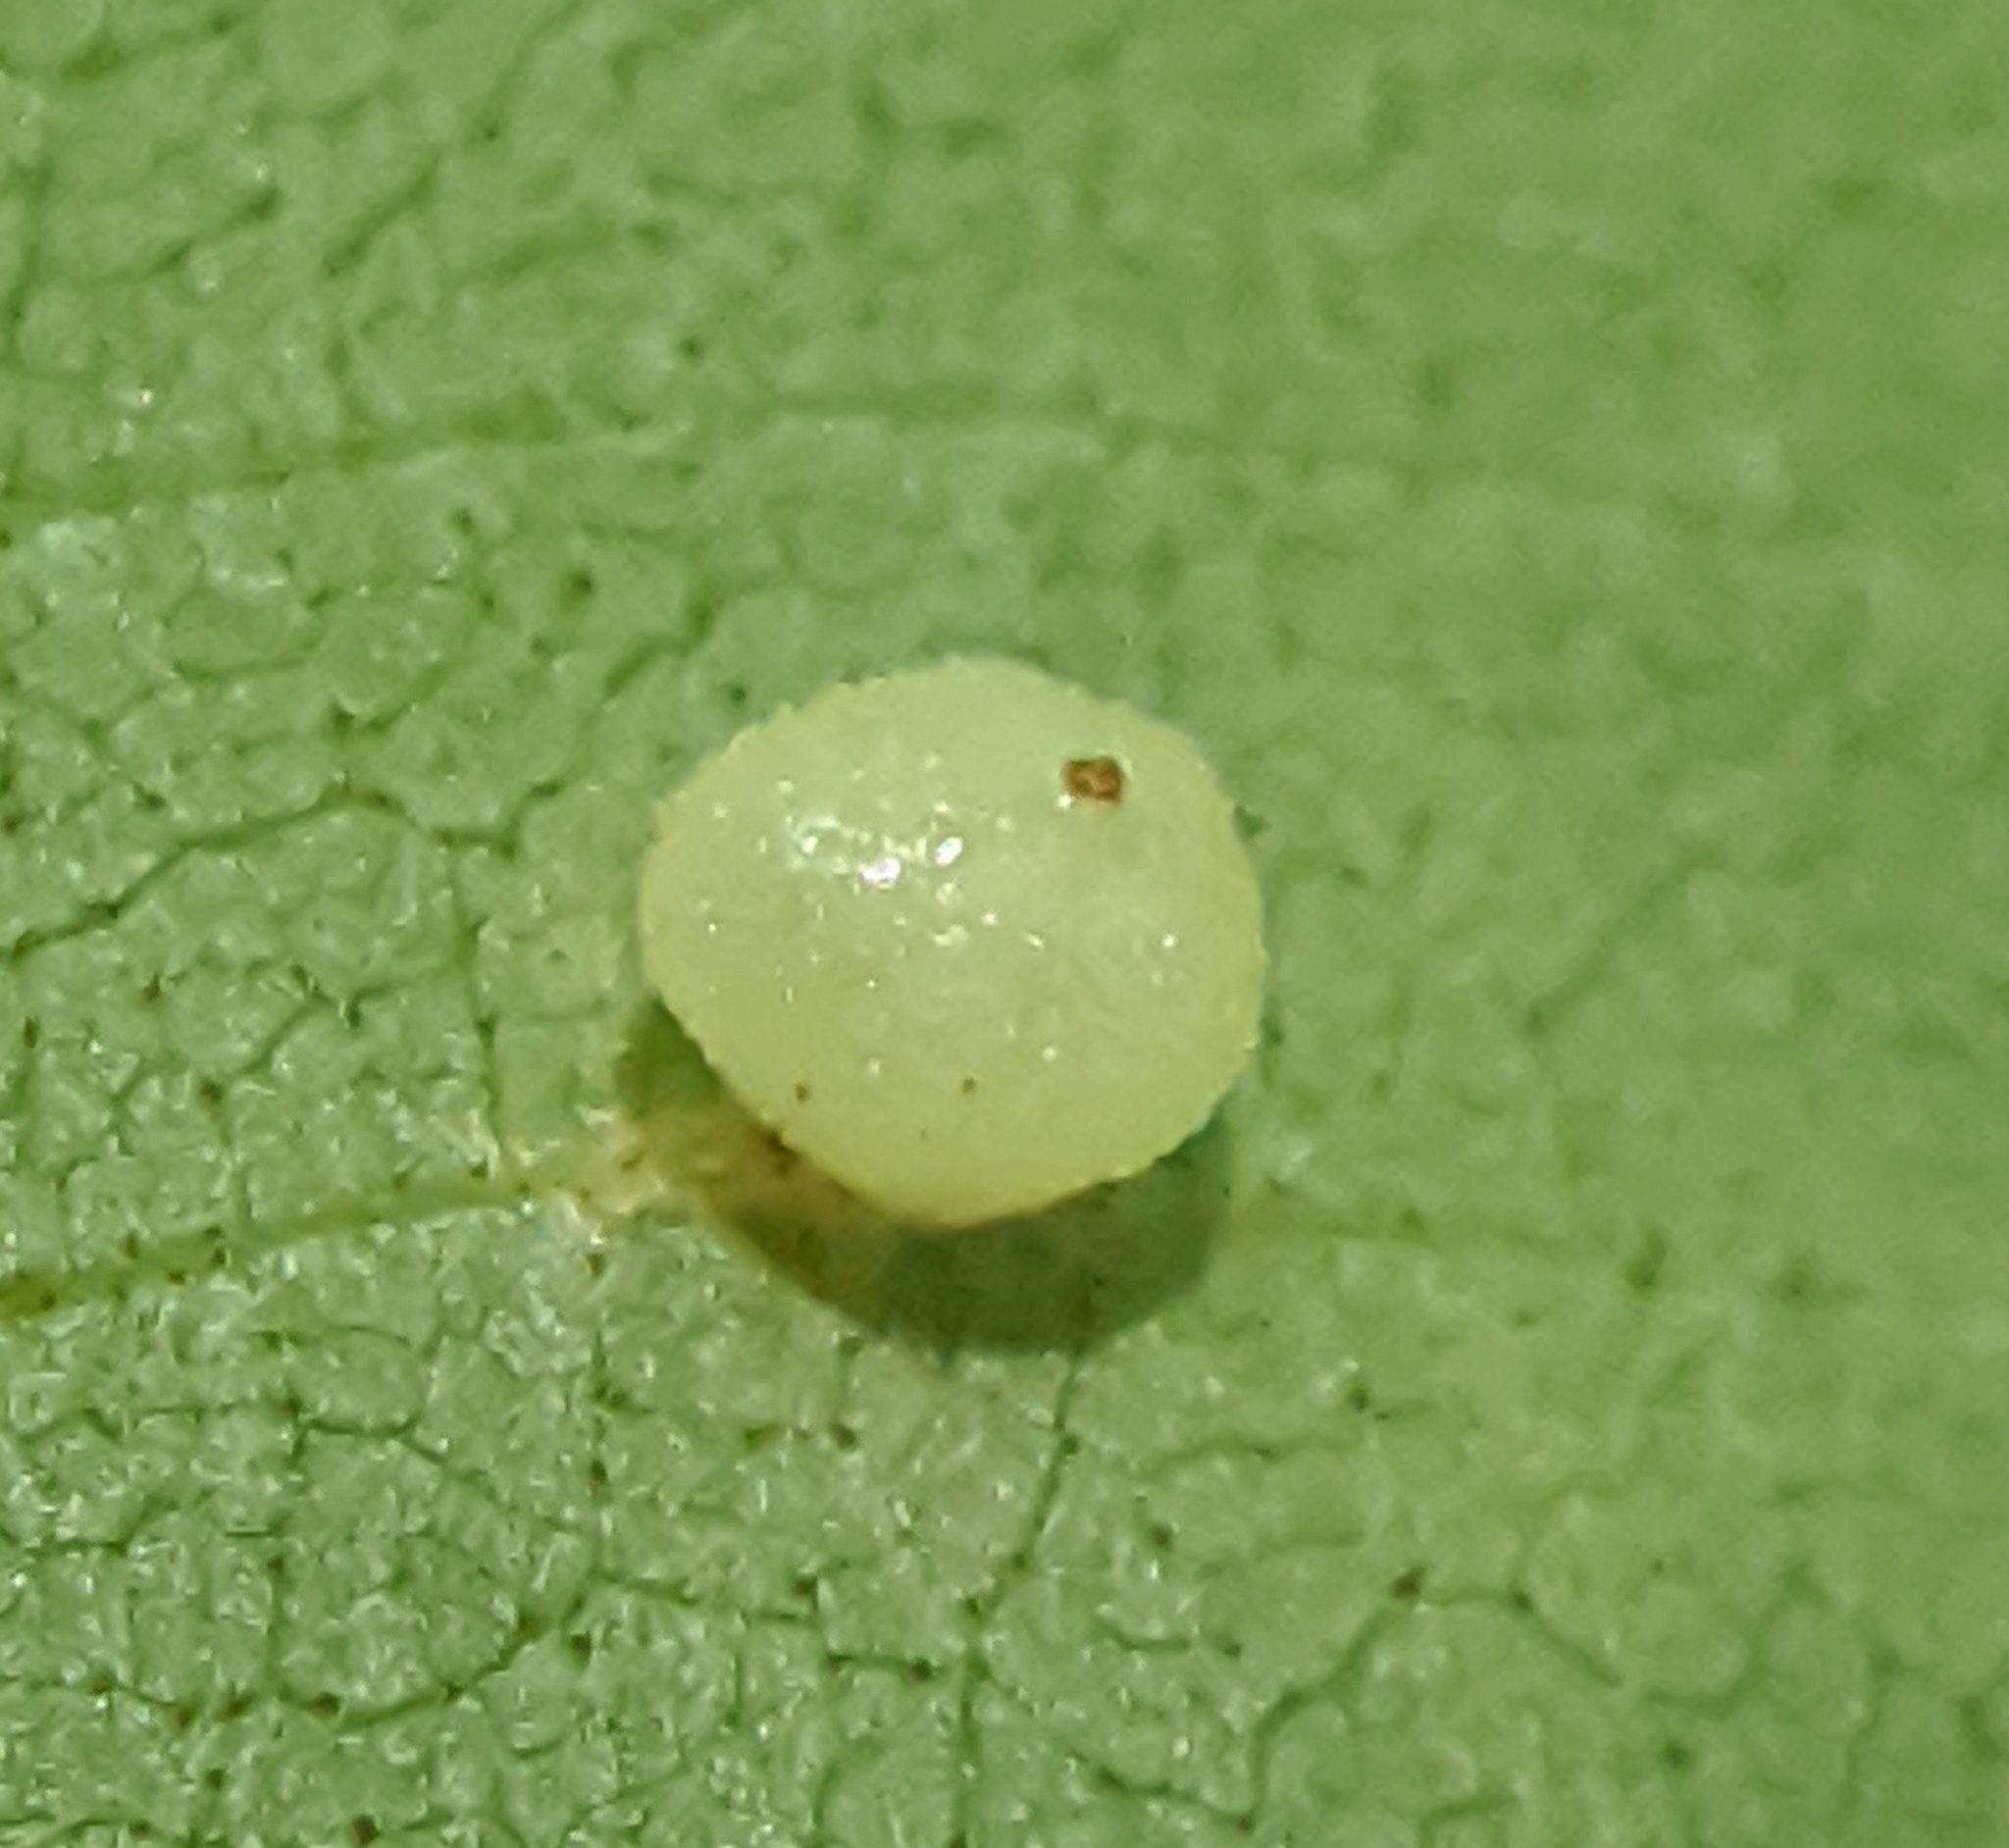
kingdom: Animalia
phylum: Arthropoda
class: Insecta
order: Diptera
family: Cecidomyiidae
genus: Caryomyia
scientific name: Caryomyia caryae
